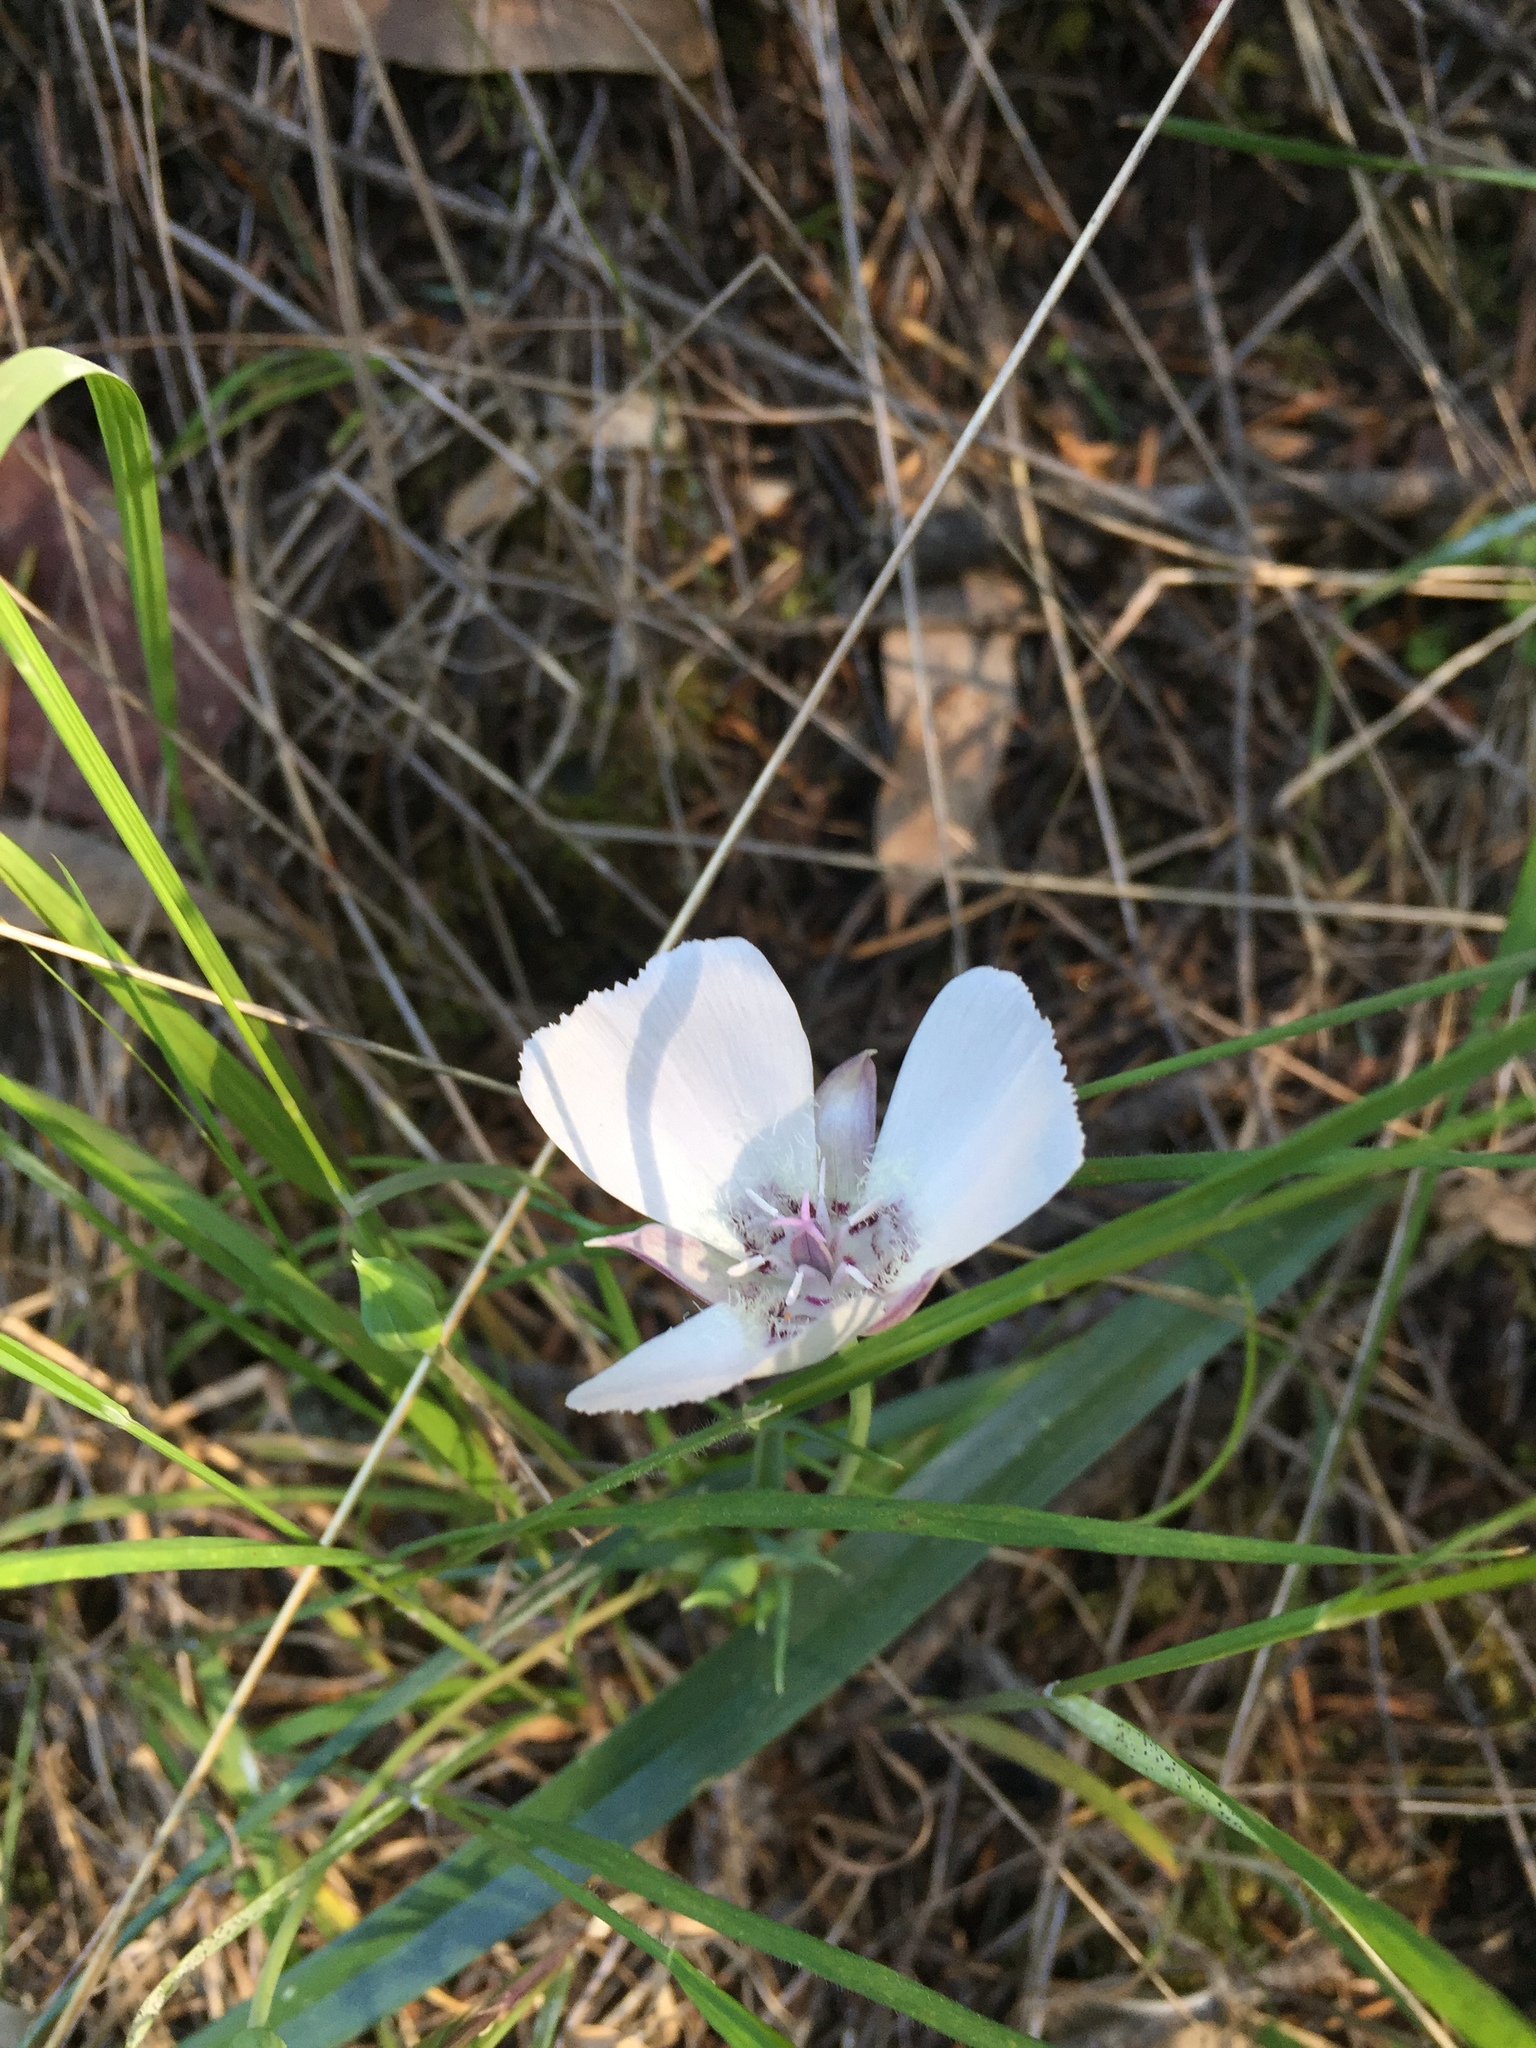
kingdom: Plantae
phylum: Tracheophyta
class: Liliopsida
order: Liliales
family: Liliaceae
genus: Calochortus
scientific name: Calochortus umbellatus
